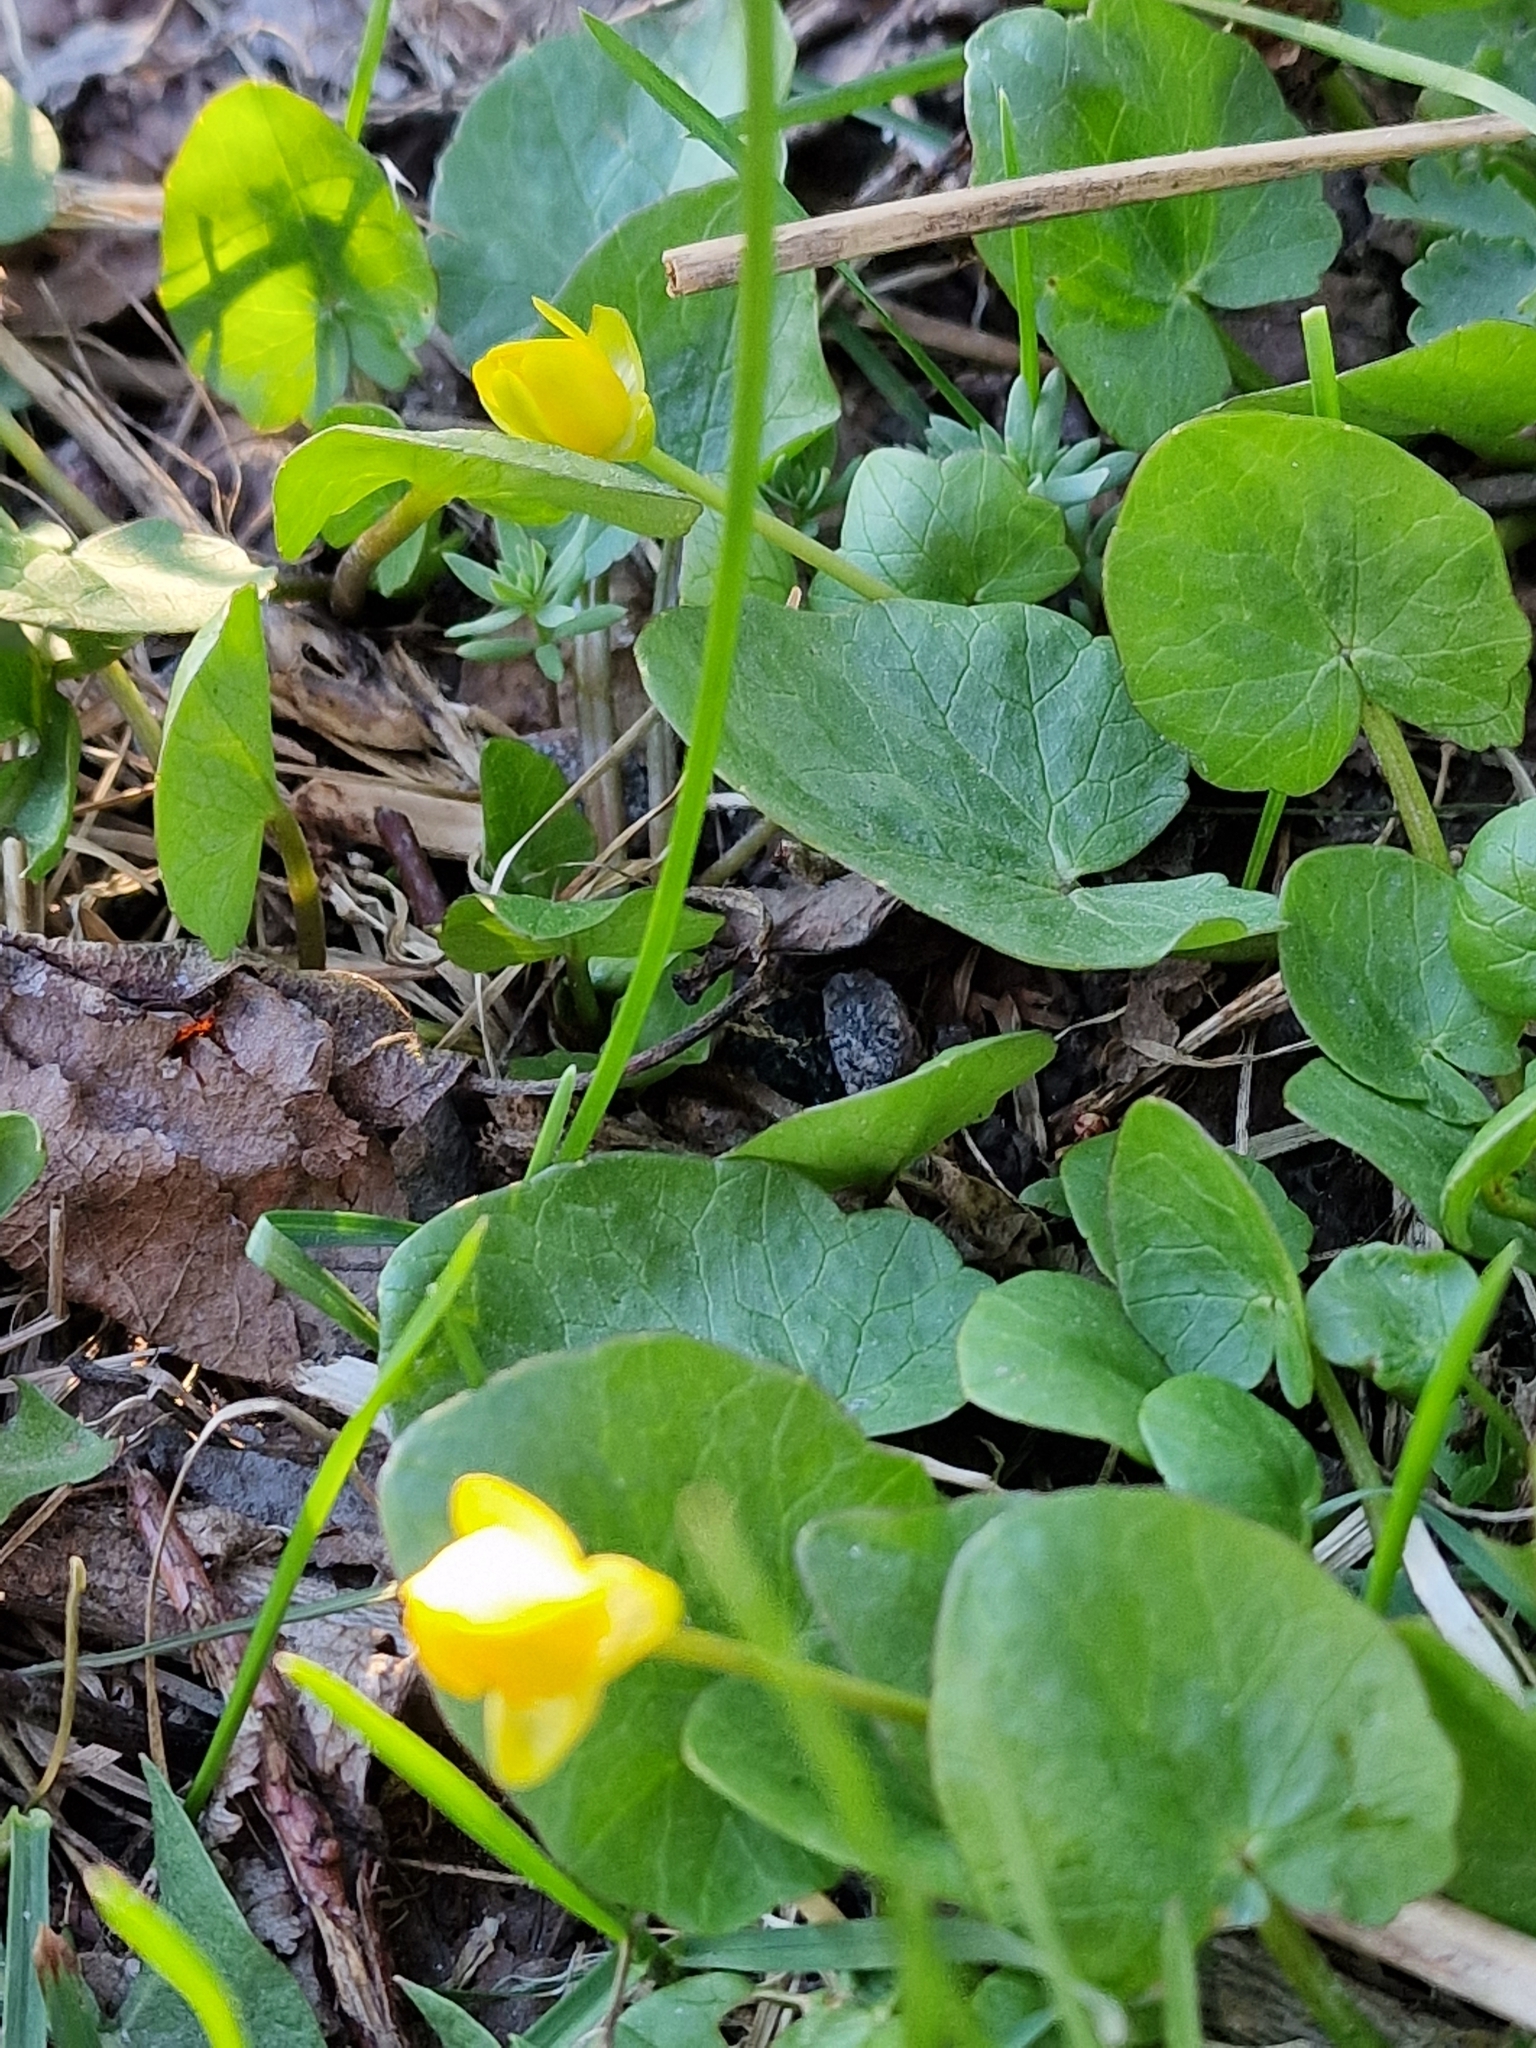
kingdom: Plantae
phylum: Tracheophyta
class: Magnoliopsida
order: Ranunculales
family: Ranunculaceae
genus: Ficaria
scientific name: Ficaria verna
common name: Lesser celandine
